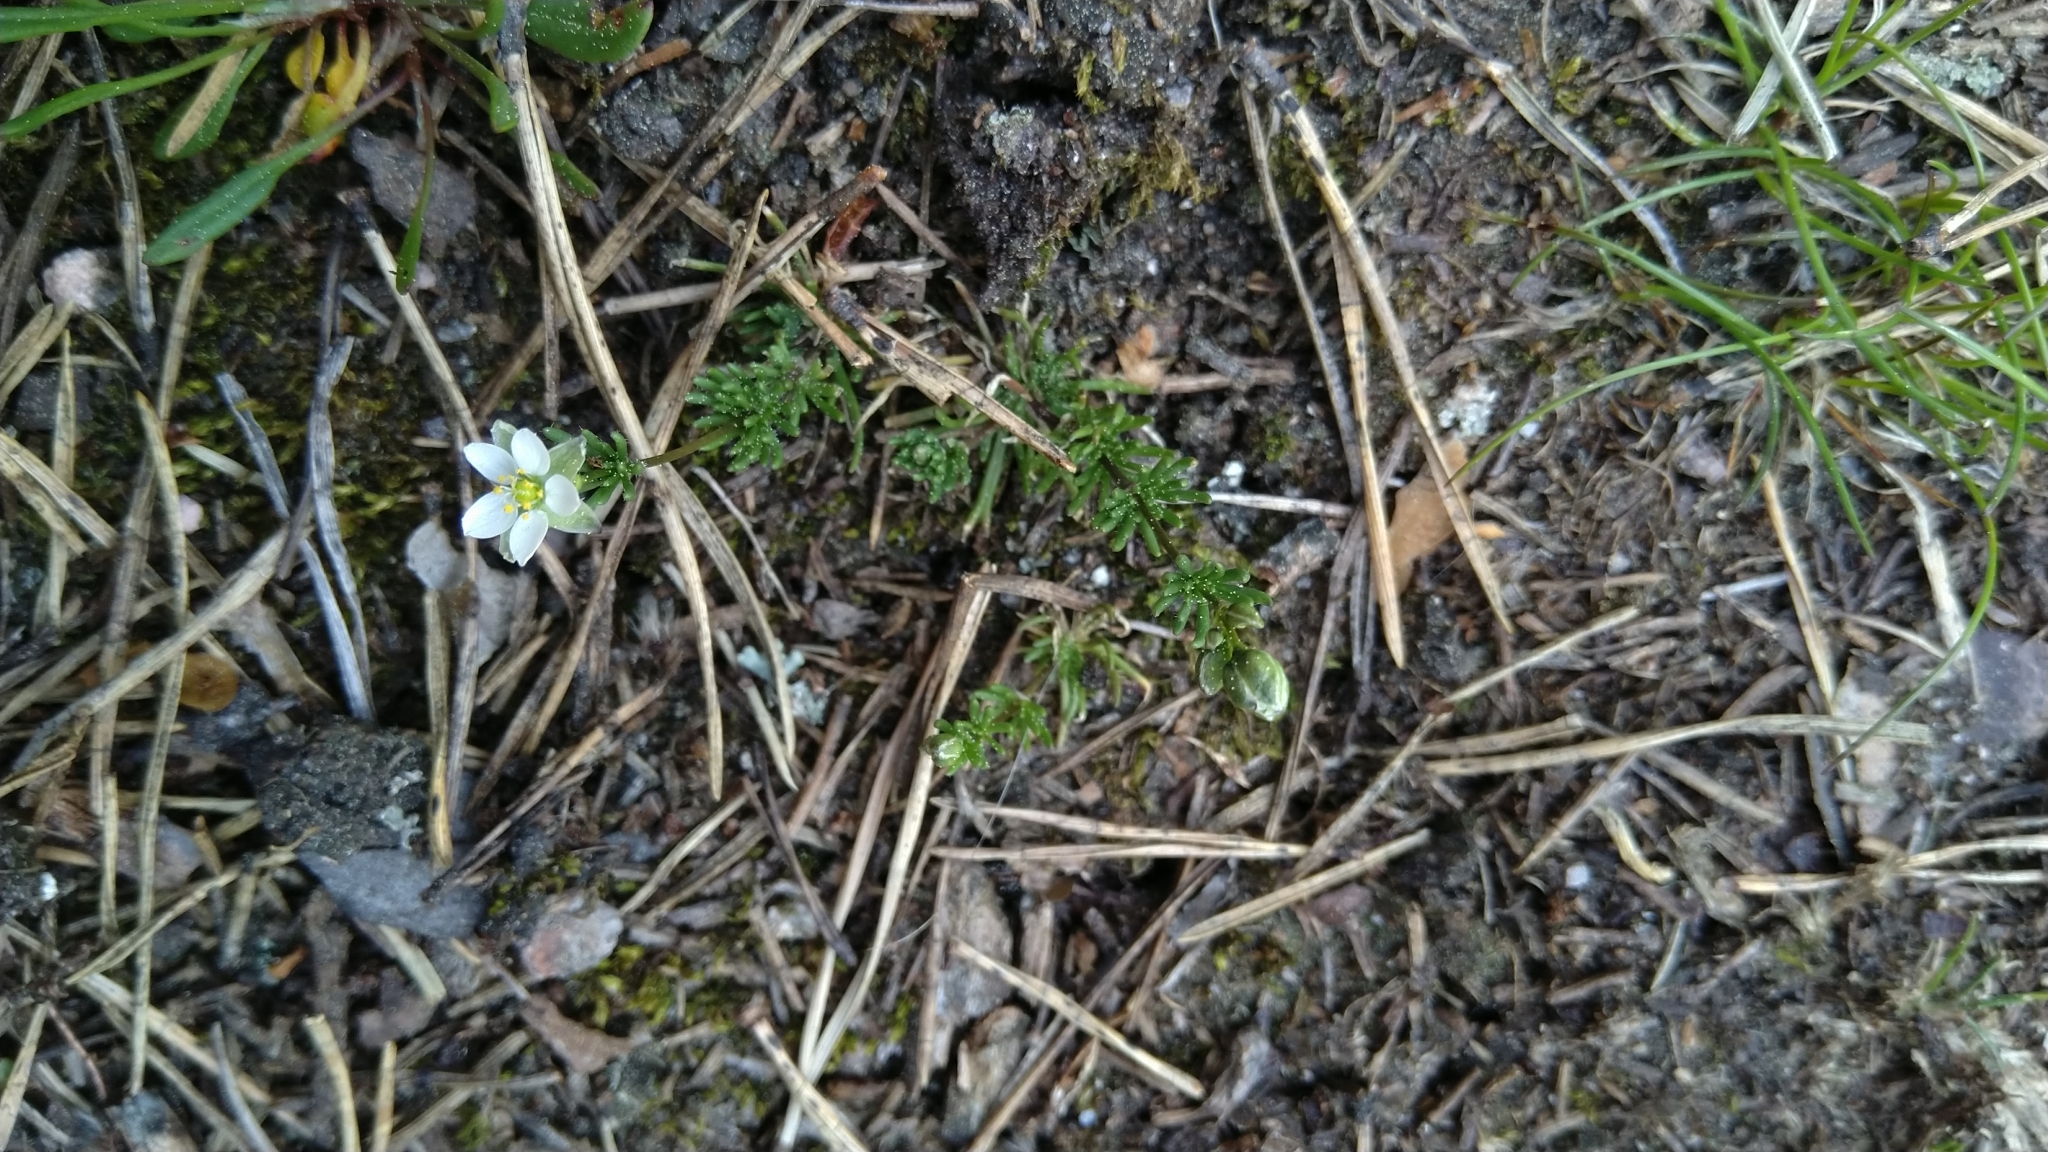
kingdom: Plantae
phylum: Tracheophyta
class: Magnoliopsida
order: Caryophyllales
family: Caryophyllaceae
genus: Spergula
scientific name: Spergula morisonii
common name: Pearlwort spurrey
